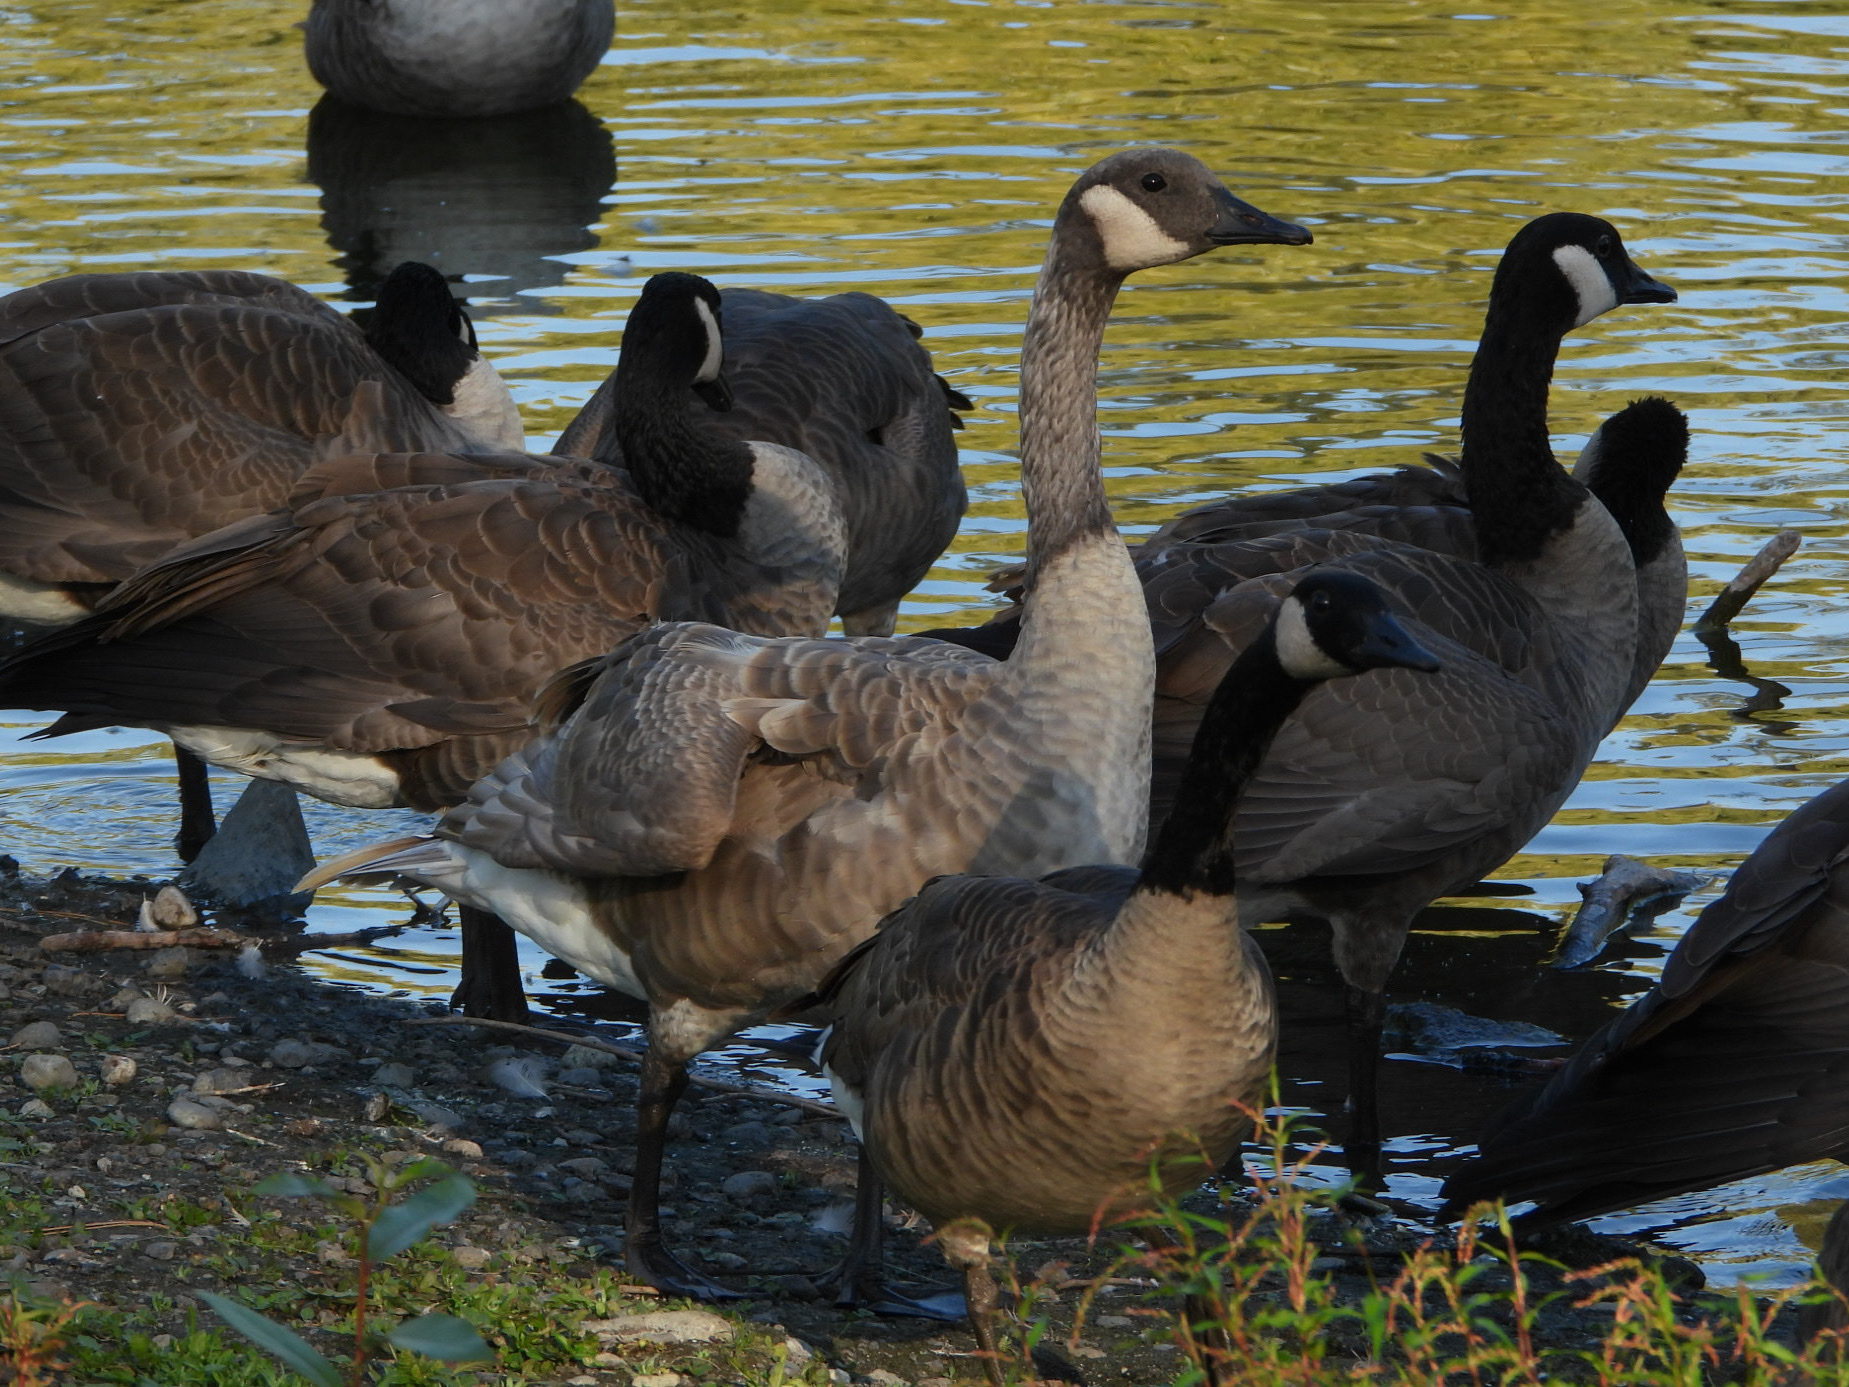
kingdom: Animalia
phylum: Chordata
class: Aves
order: Anseriformes
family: Anatidae
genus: Branta
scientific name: Branta canadensis
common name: Canada goose
